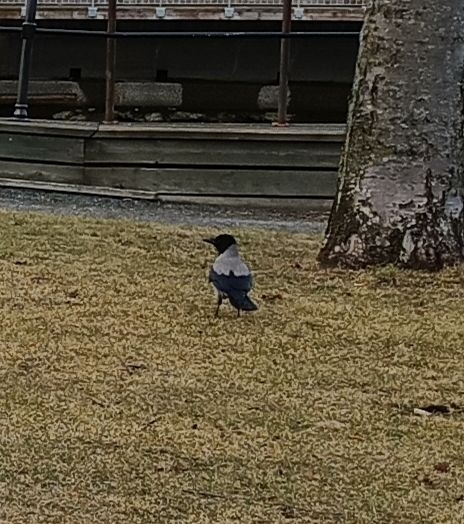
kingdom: Animalia
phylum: Chordata
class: Aves
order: Passeriformes
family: Corvidae
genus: Corvus
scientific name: Corvus cornix
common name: Hooded crow
